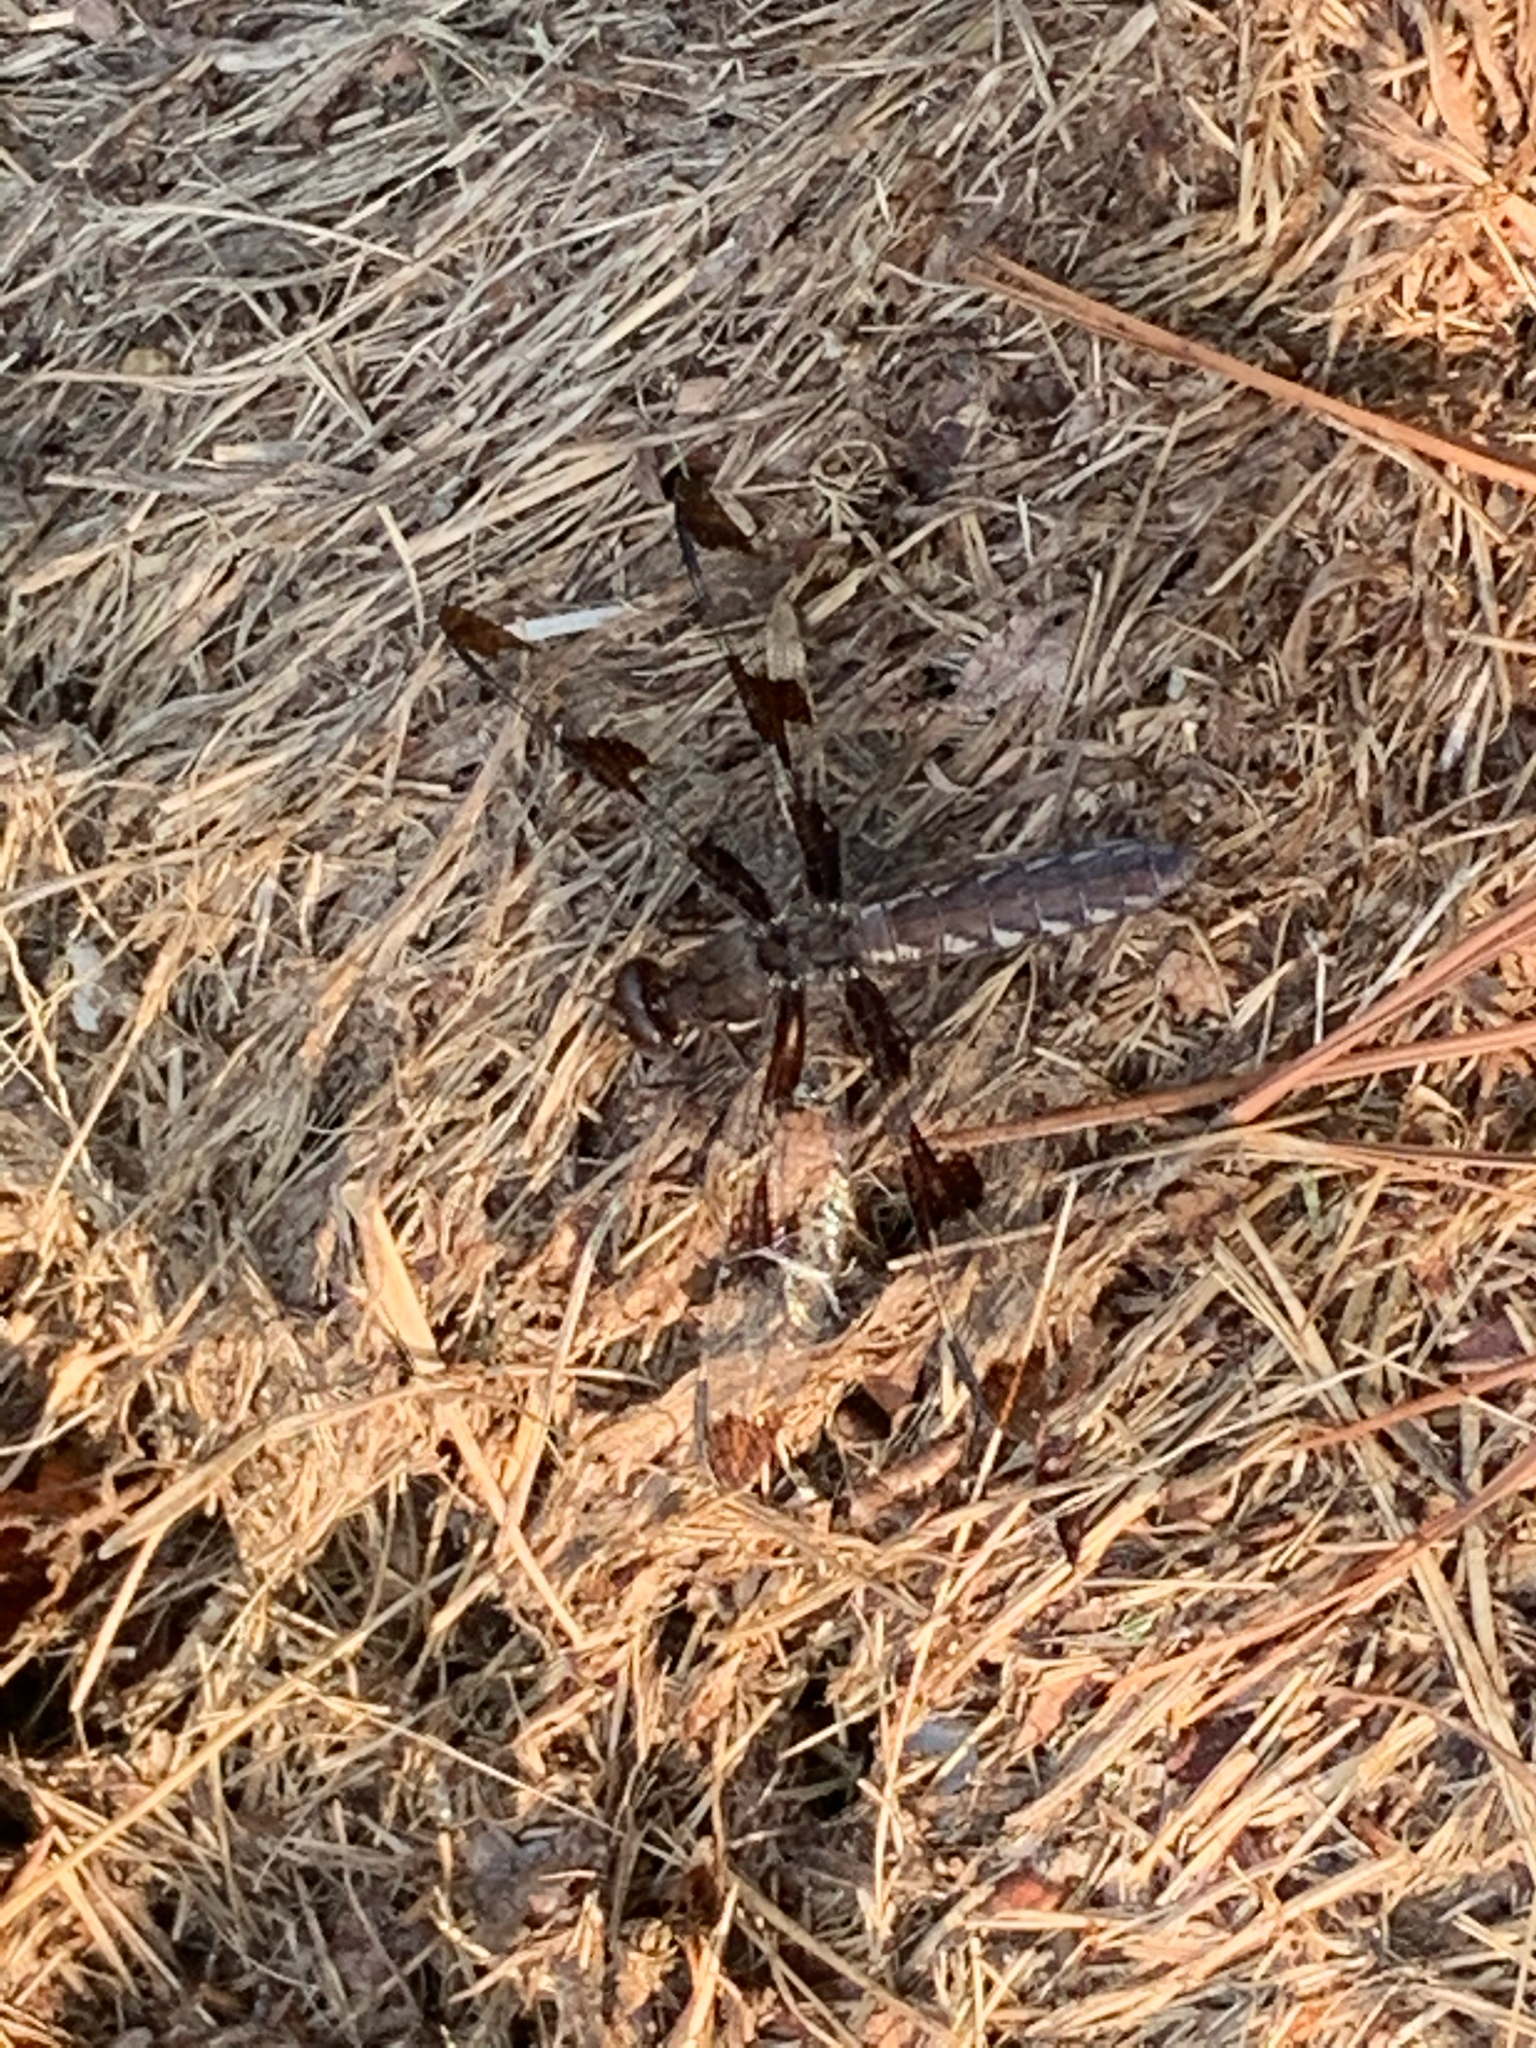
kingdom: Animalia
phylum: Arthropoda
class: Insecta
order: Odonata
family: Libellulidae
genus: Plathemis
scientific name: Plathemis lydia
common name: Common whitetail
